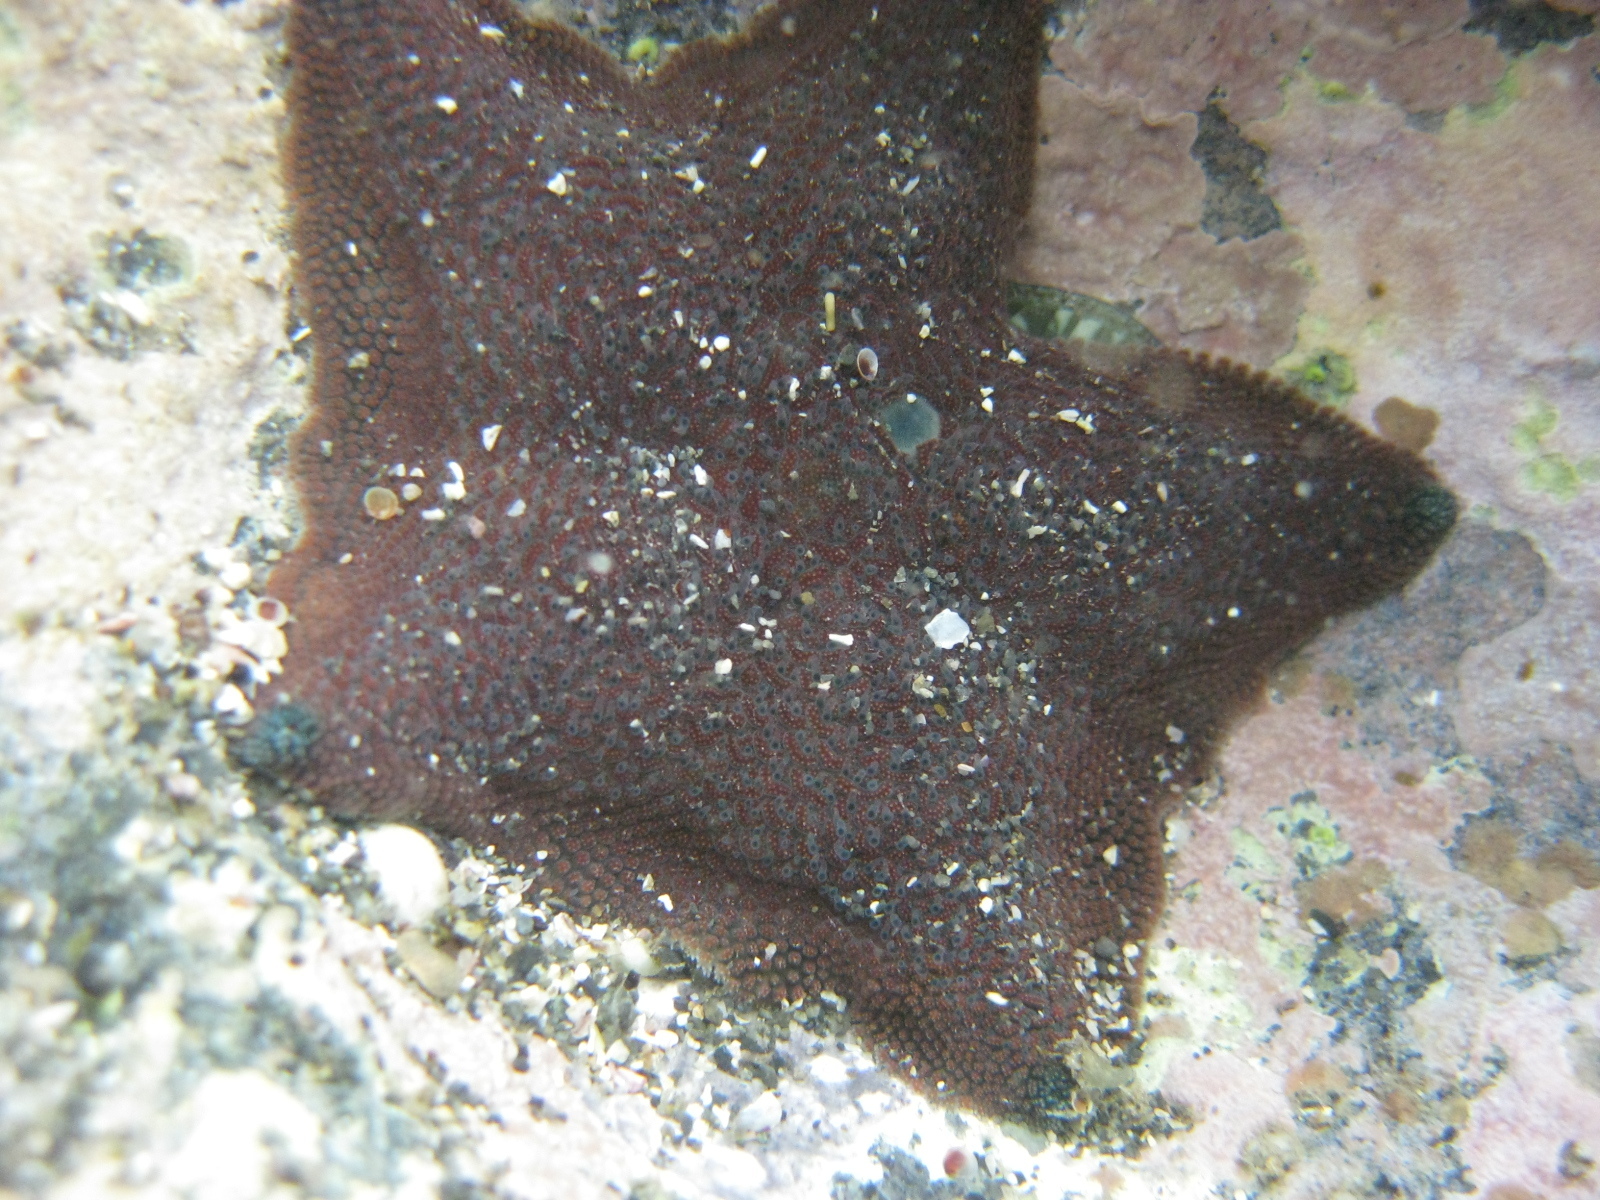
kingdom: Animalia
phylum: Echinodermata
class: Asteroidea
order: Valvatida
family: Asterinidae
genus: Patiriella
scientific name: Patiriella regularis
